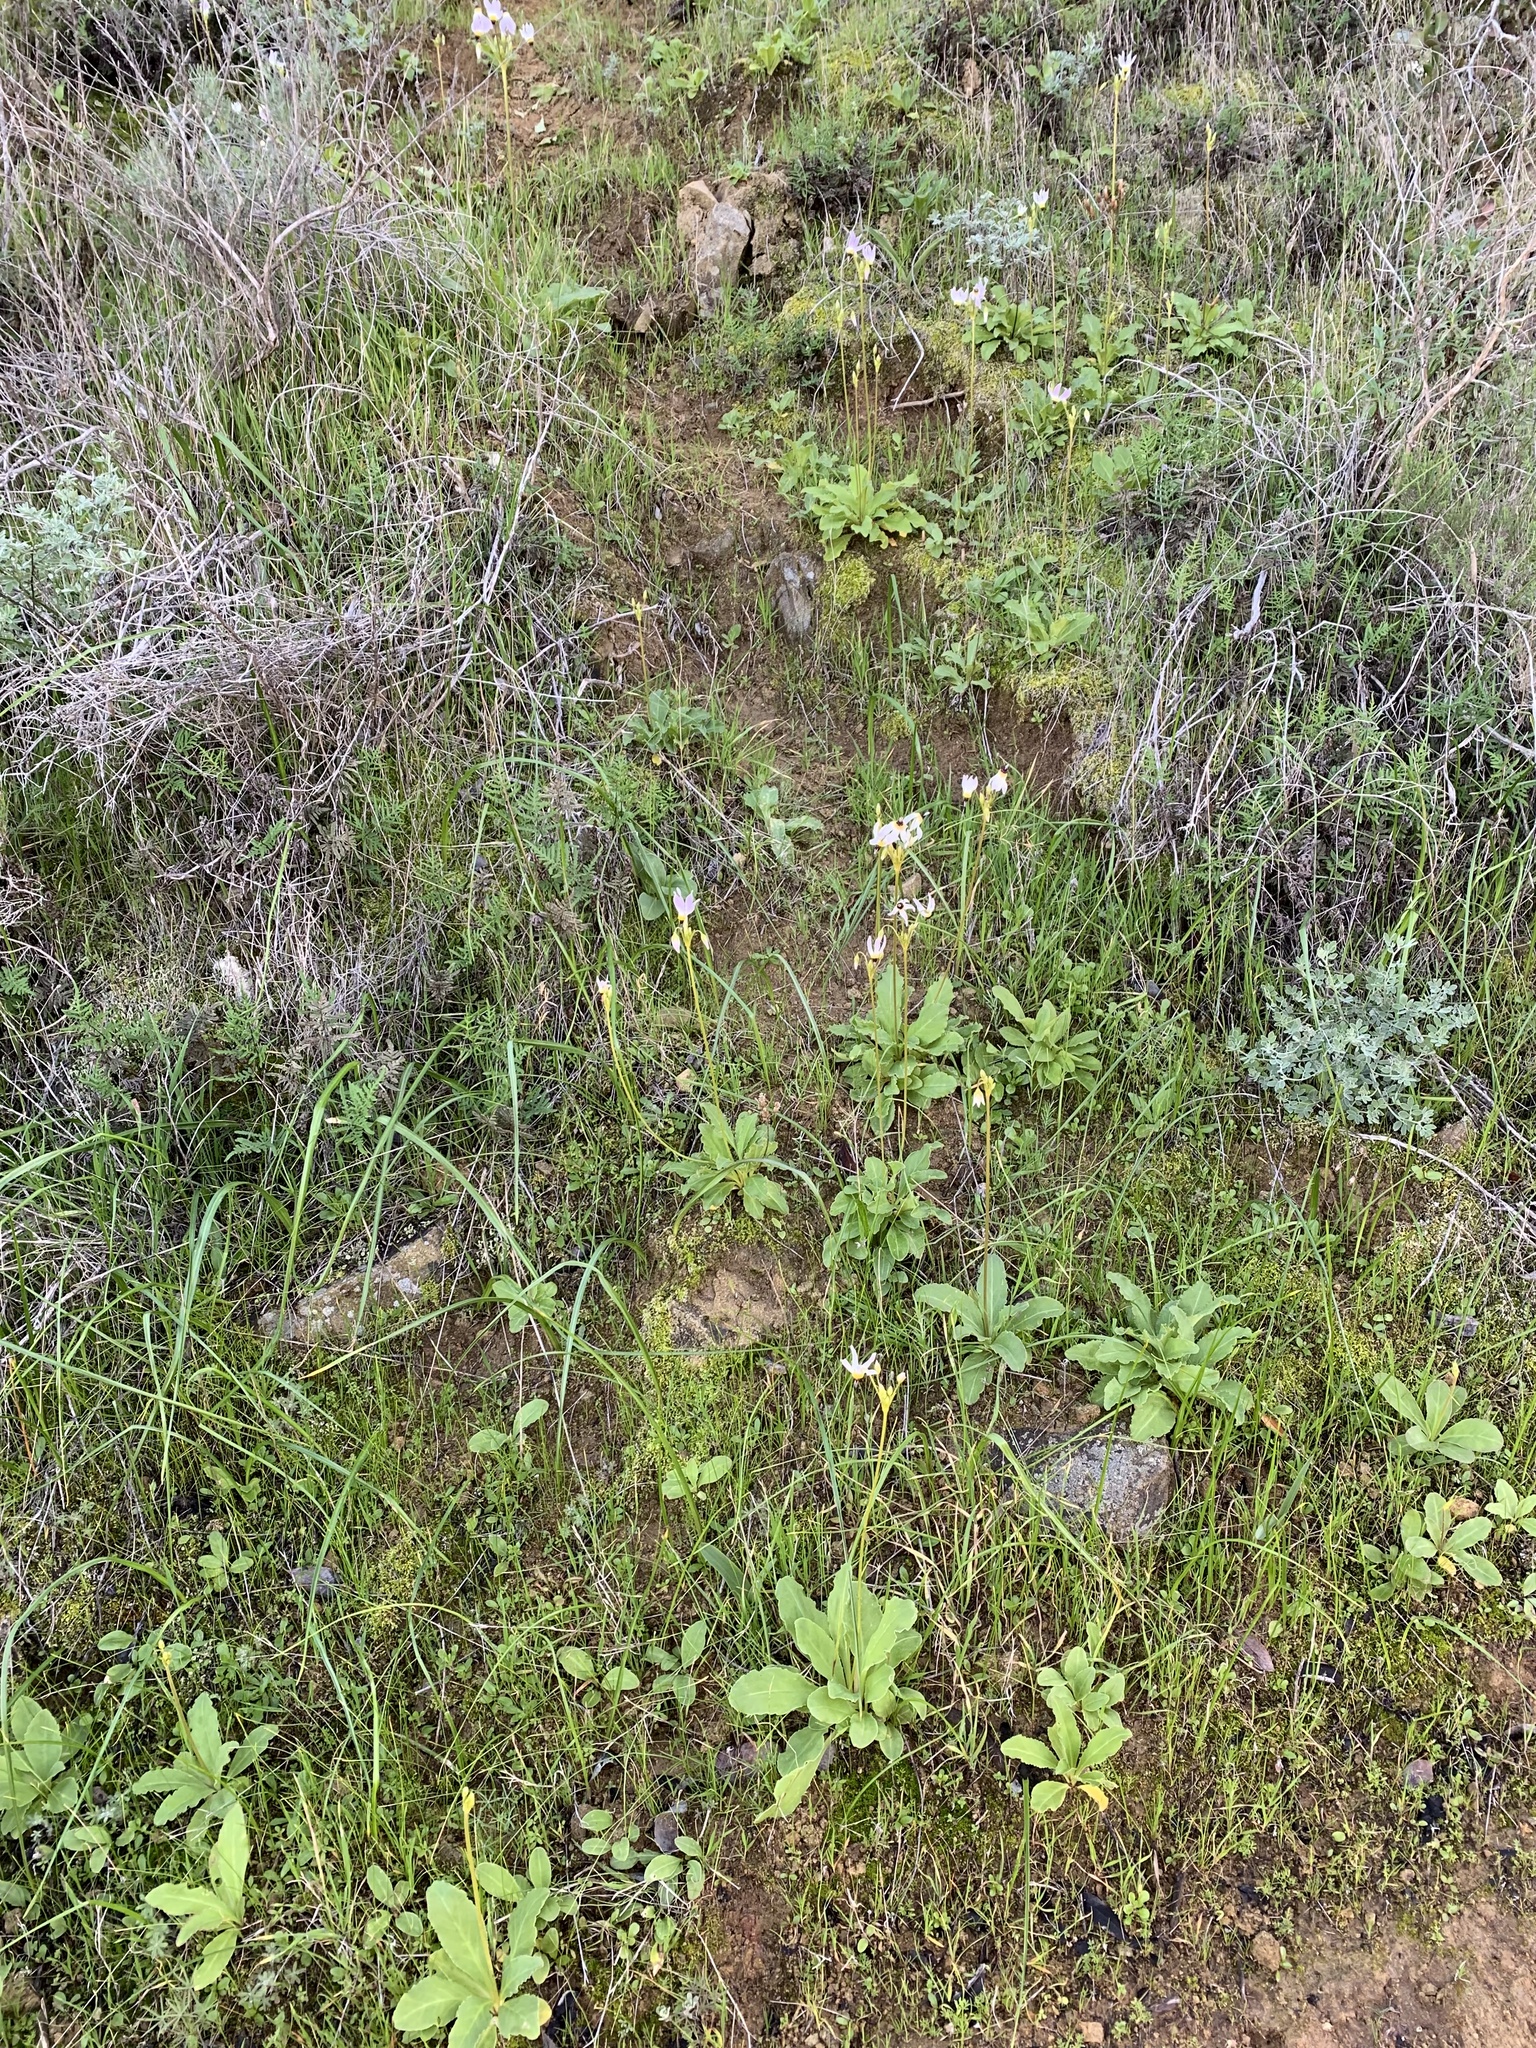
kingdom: Plantae
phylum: Tracheophyta
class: Magnoliopsida
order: Ericales
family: Primulaceae
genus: Dodecatheon
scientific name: Dodecatheon clevelandii
